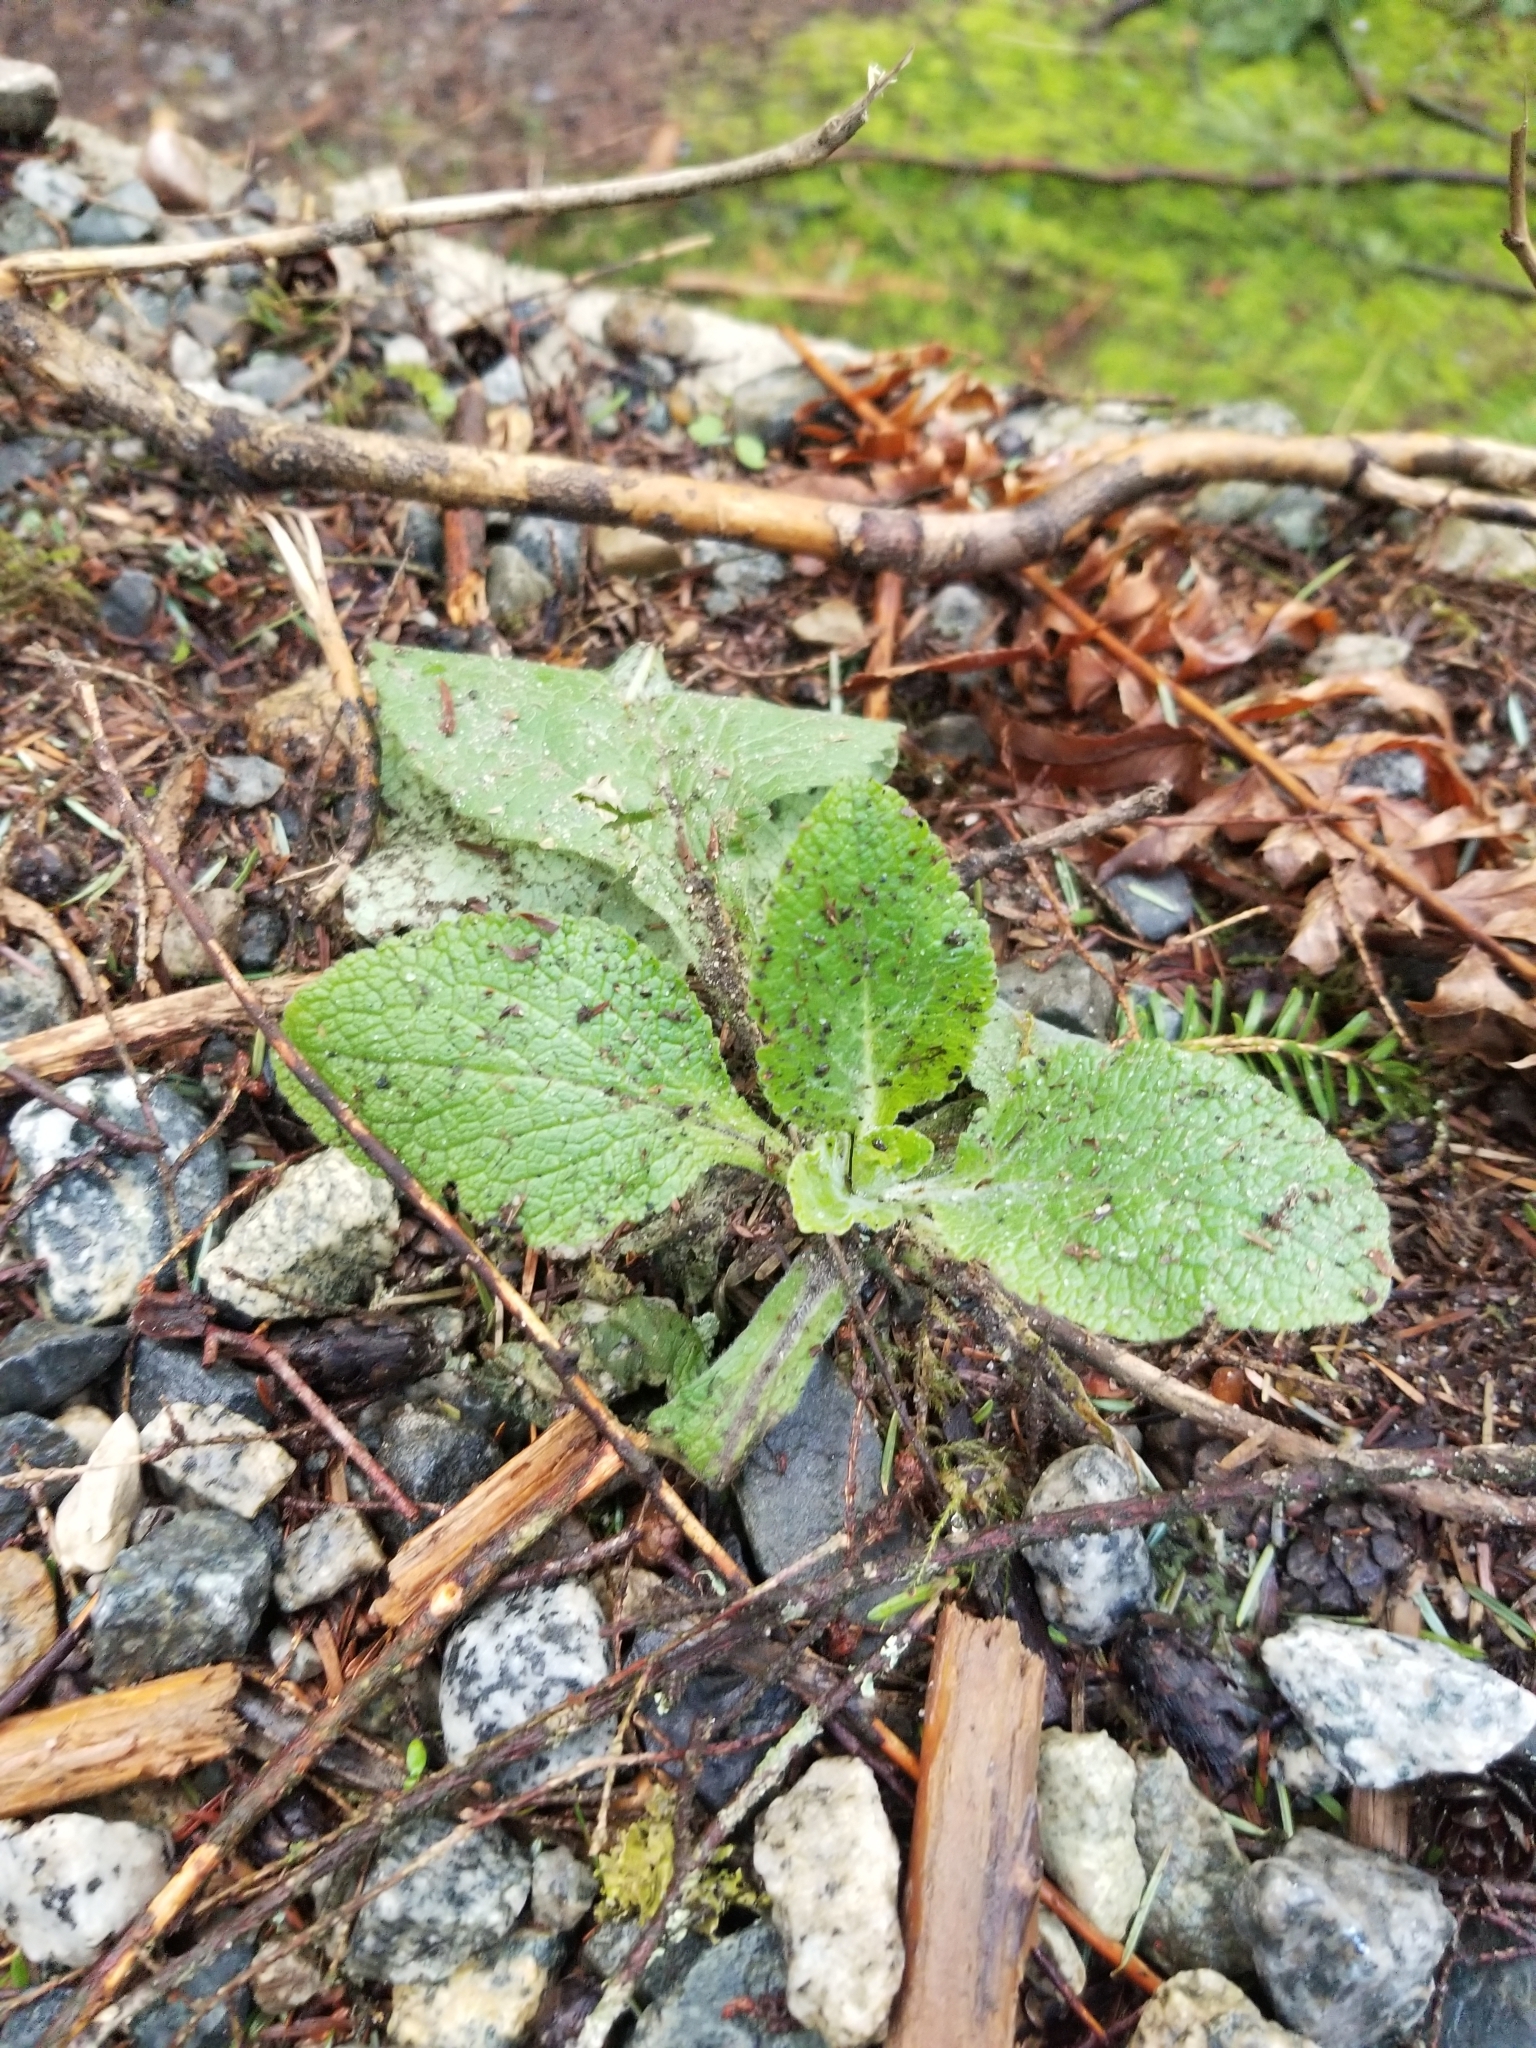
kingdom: Plantae
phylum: Tracheophyta
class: Magnoliopsida
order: Lamiales
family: Plantaginaceae
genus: Digitalis
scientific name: Digitalis purpurea
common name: Foxglove
